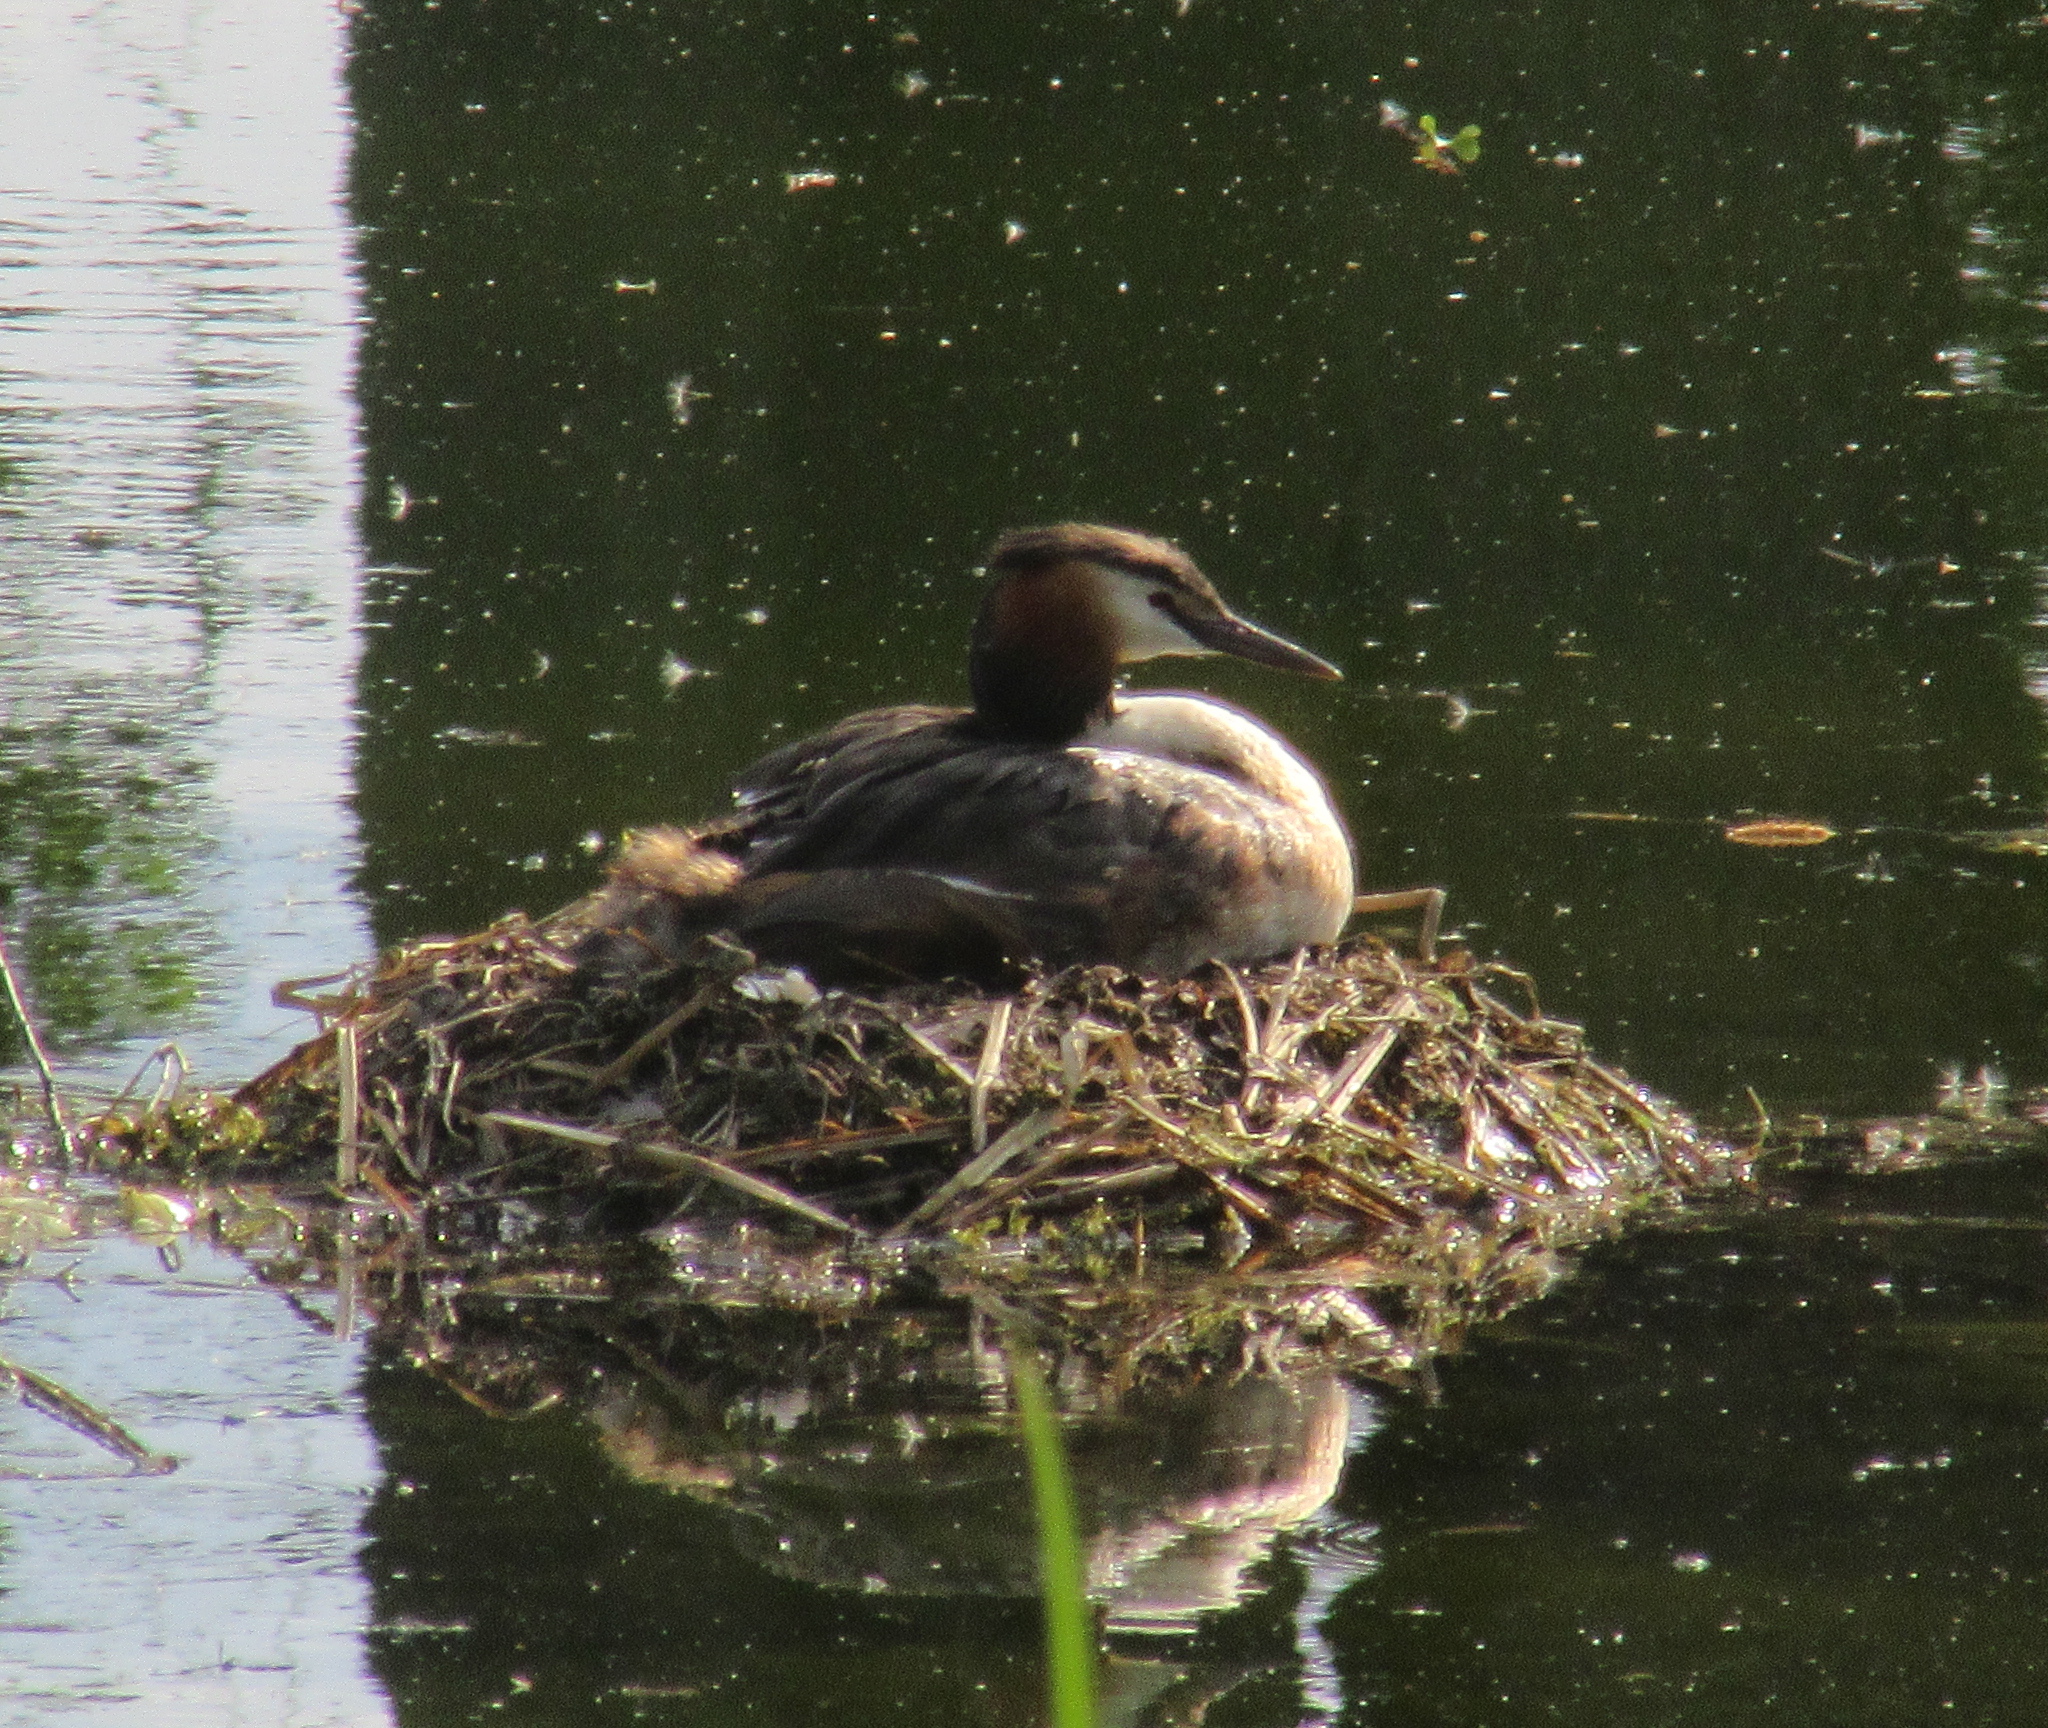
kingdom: Animalia
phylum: Chordata
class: Aves
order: Podicipediformes
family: Podicipedidae
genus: Podiceps
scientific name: Podiceps cristatus
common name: Great crested grebe
